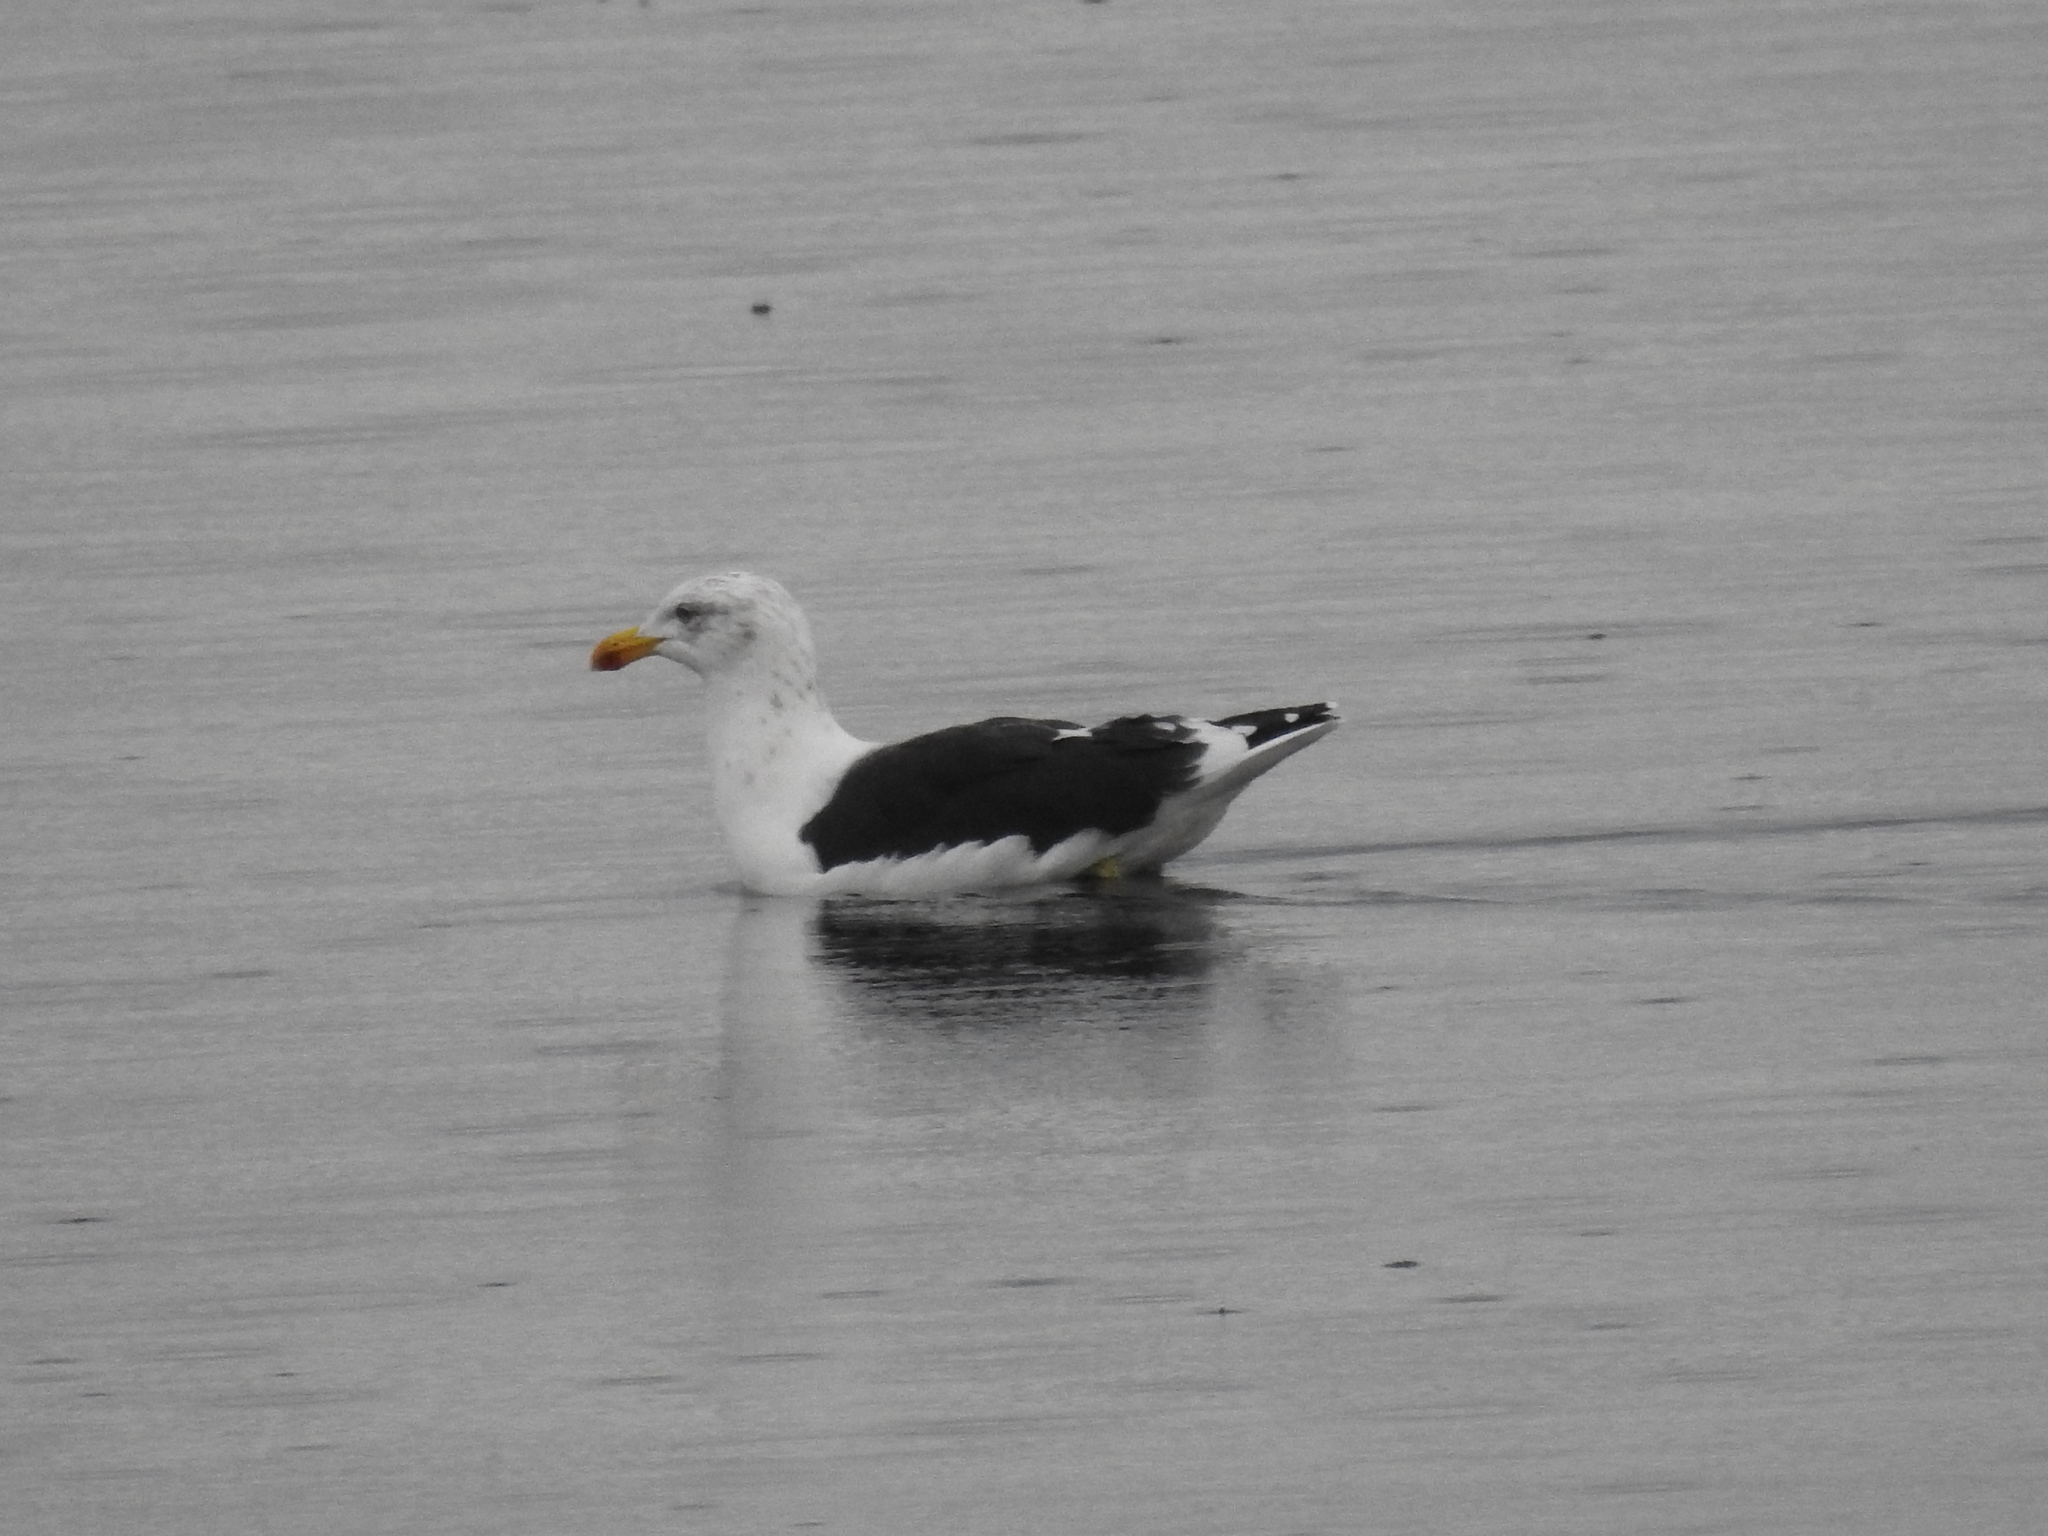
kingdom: Animalia
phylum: Chordata
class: Aves
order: Charadriiformes
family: Laridae
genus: Larus
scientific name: Larus dominicanus
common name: Kelp gull
